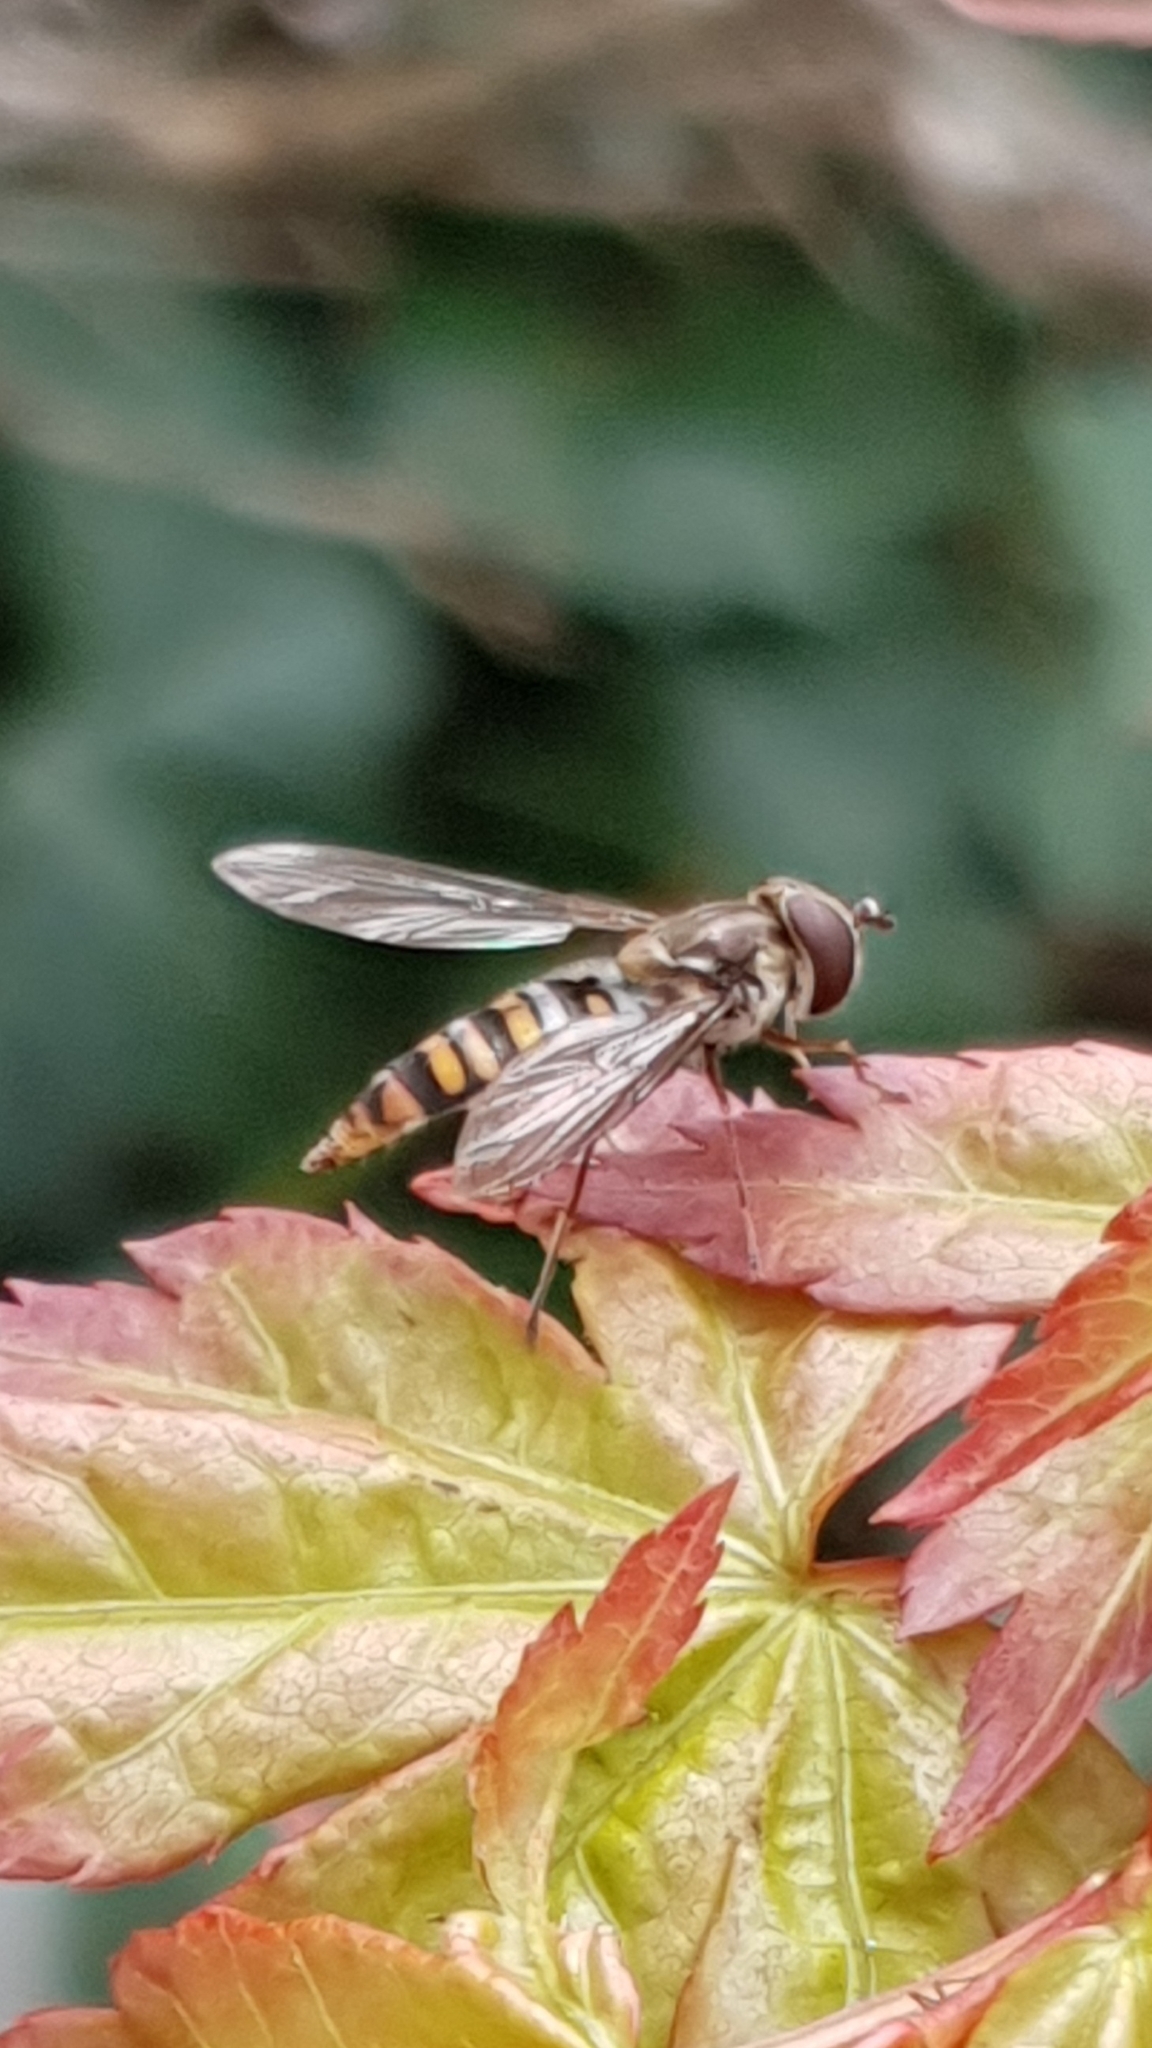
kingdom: Animalia
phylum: Arthropoda
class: Insecta
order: Diptera
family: Syrphidae
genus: Episyrphus
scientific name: Episyrphus balteatus
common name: Marmalade hoverfly
